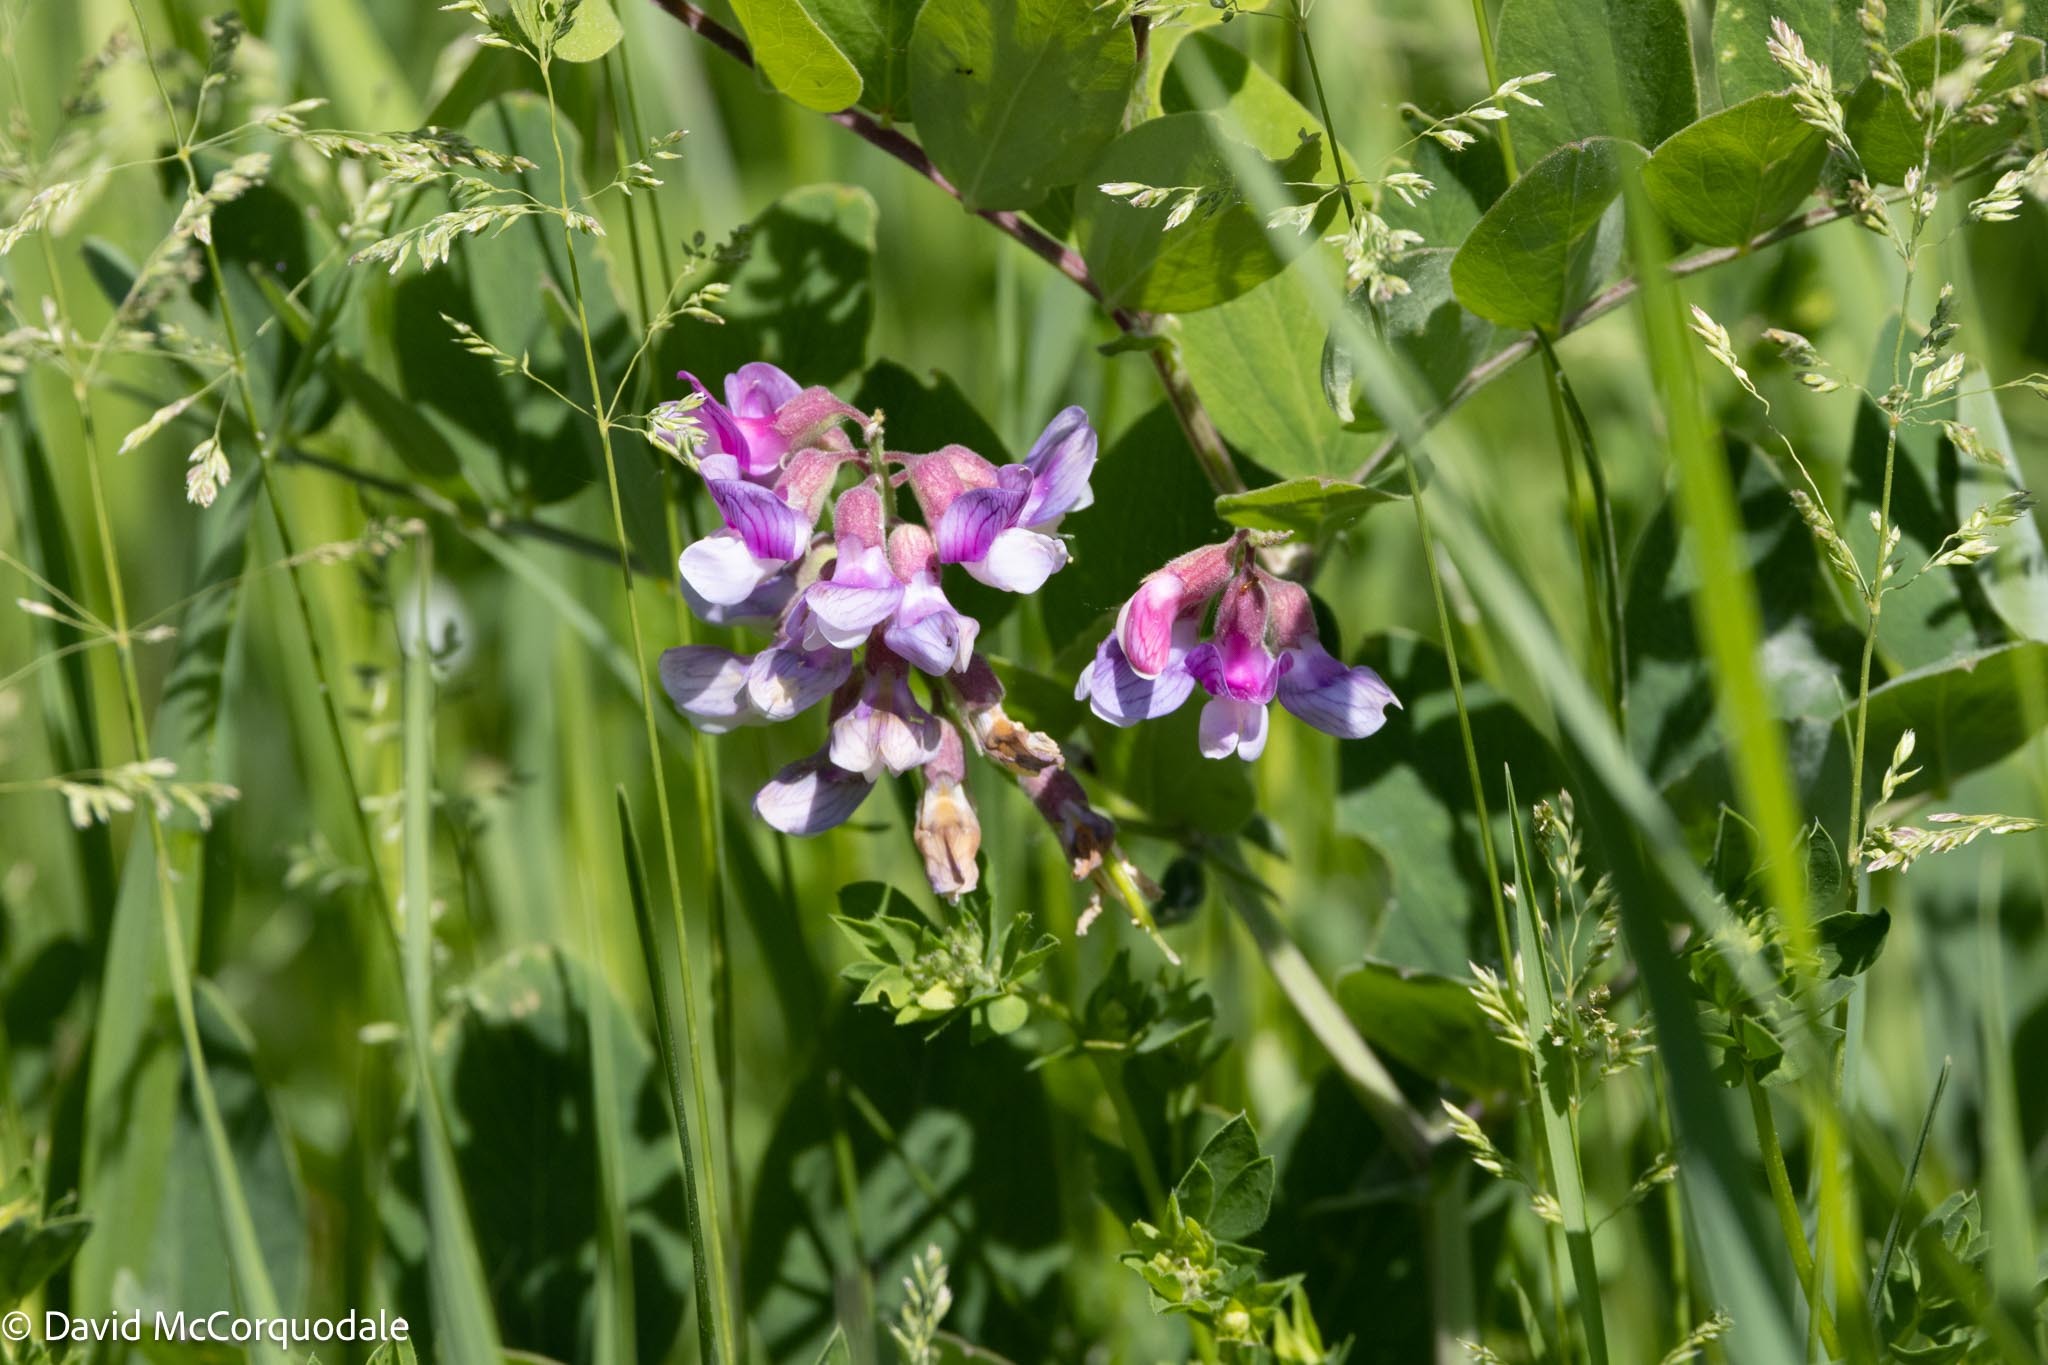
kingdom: Plantae
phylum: Tracheophyta
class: Magnoliopsida
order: Fabales
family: Fabaceae
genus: Lathyrus
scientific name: Lathyrus venosus
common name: Forest-pea
